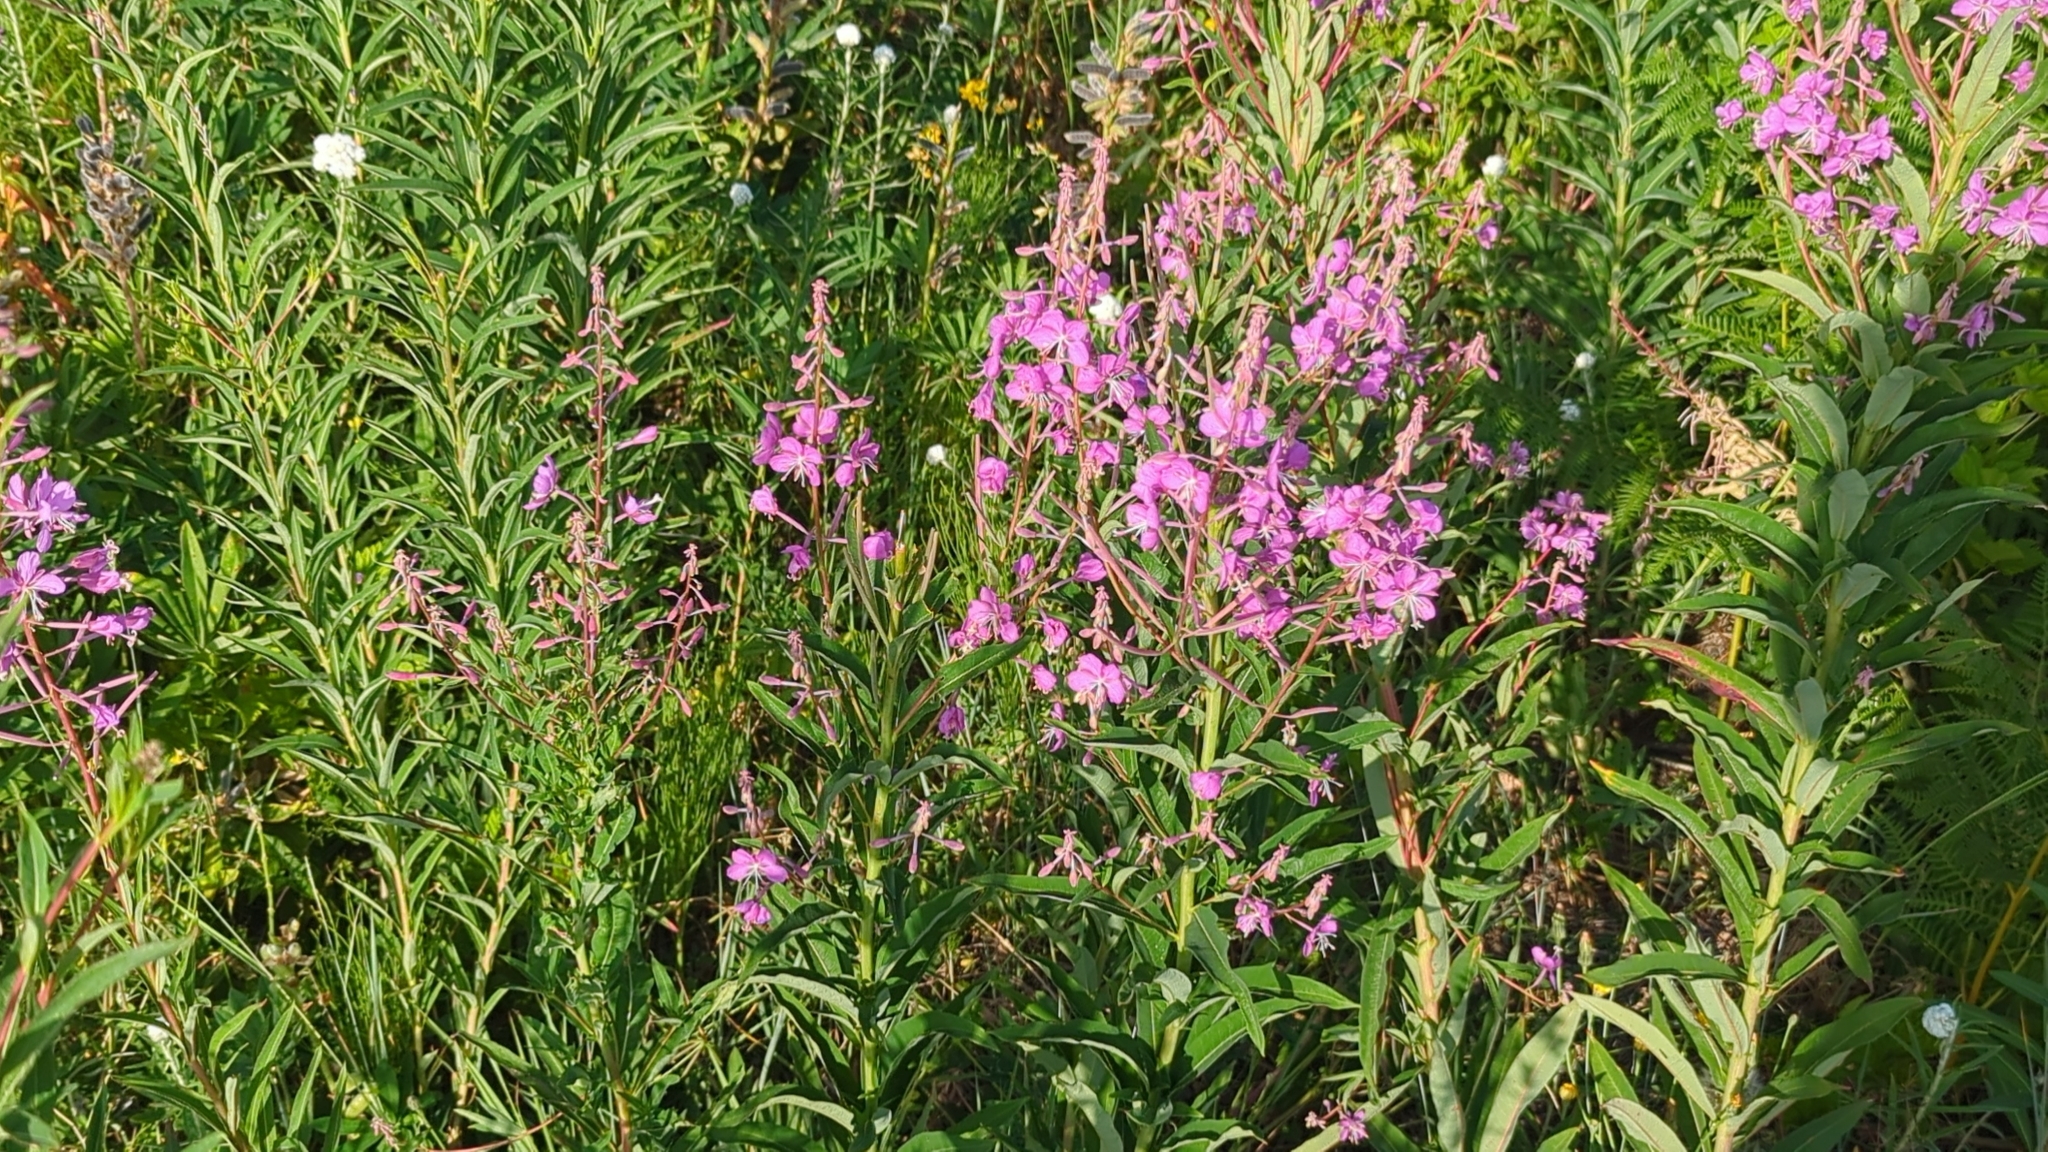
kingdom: Plantae
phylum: Tracheophyta
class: Magnoliopsida
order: Myrtales
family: Onagraceae
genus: Chamaenerion
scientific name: Chamaenerion angustifolium
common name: Fireweed
